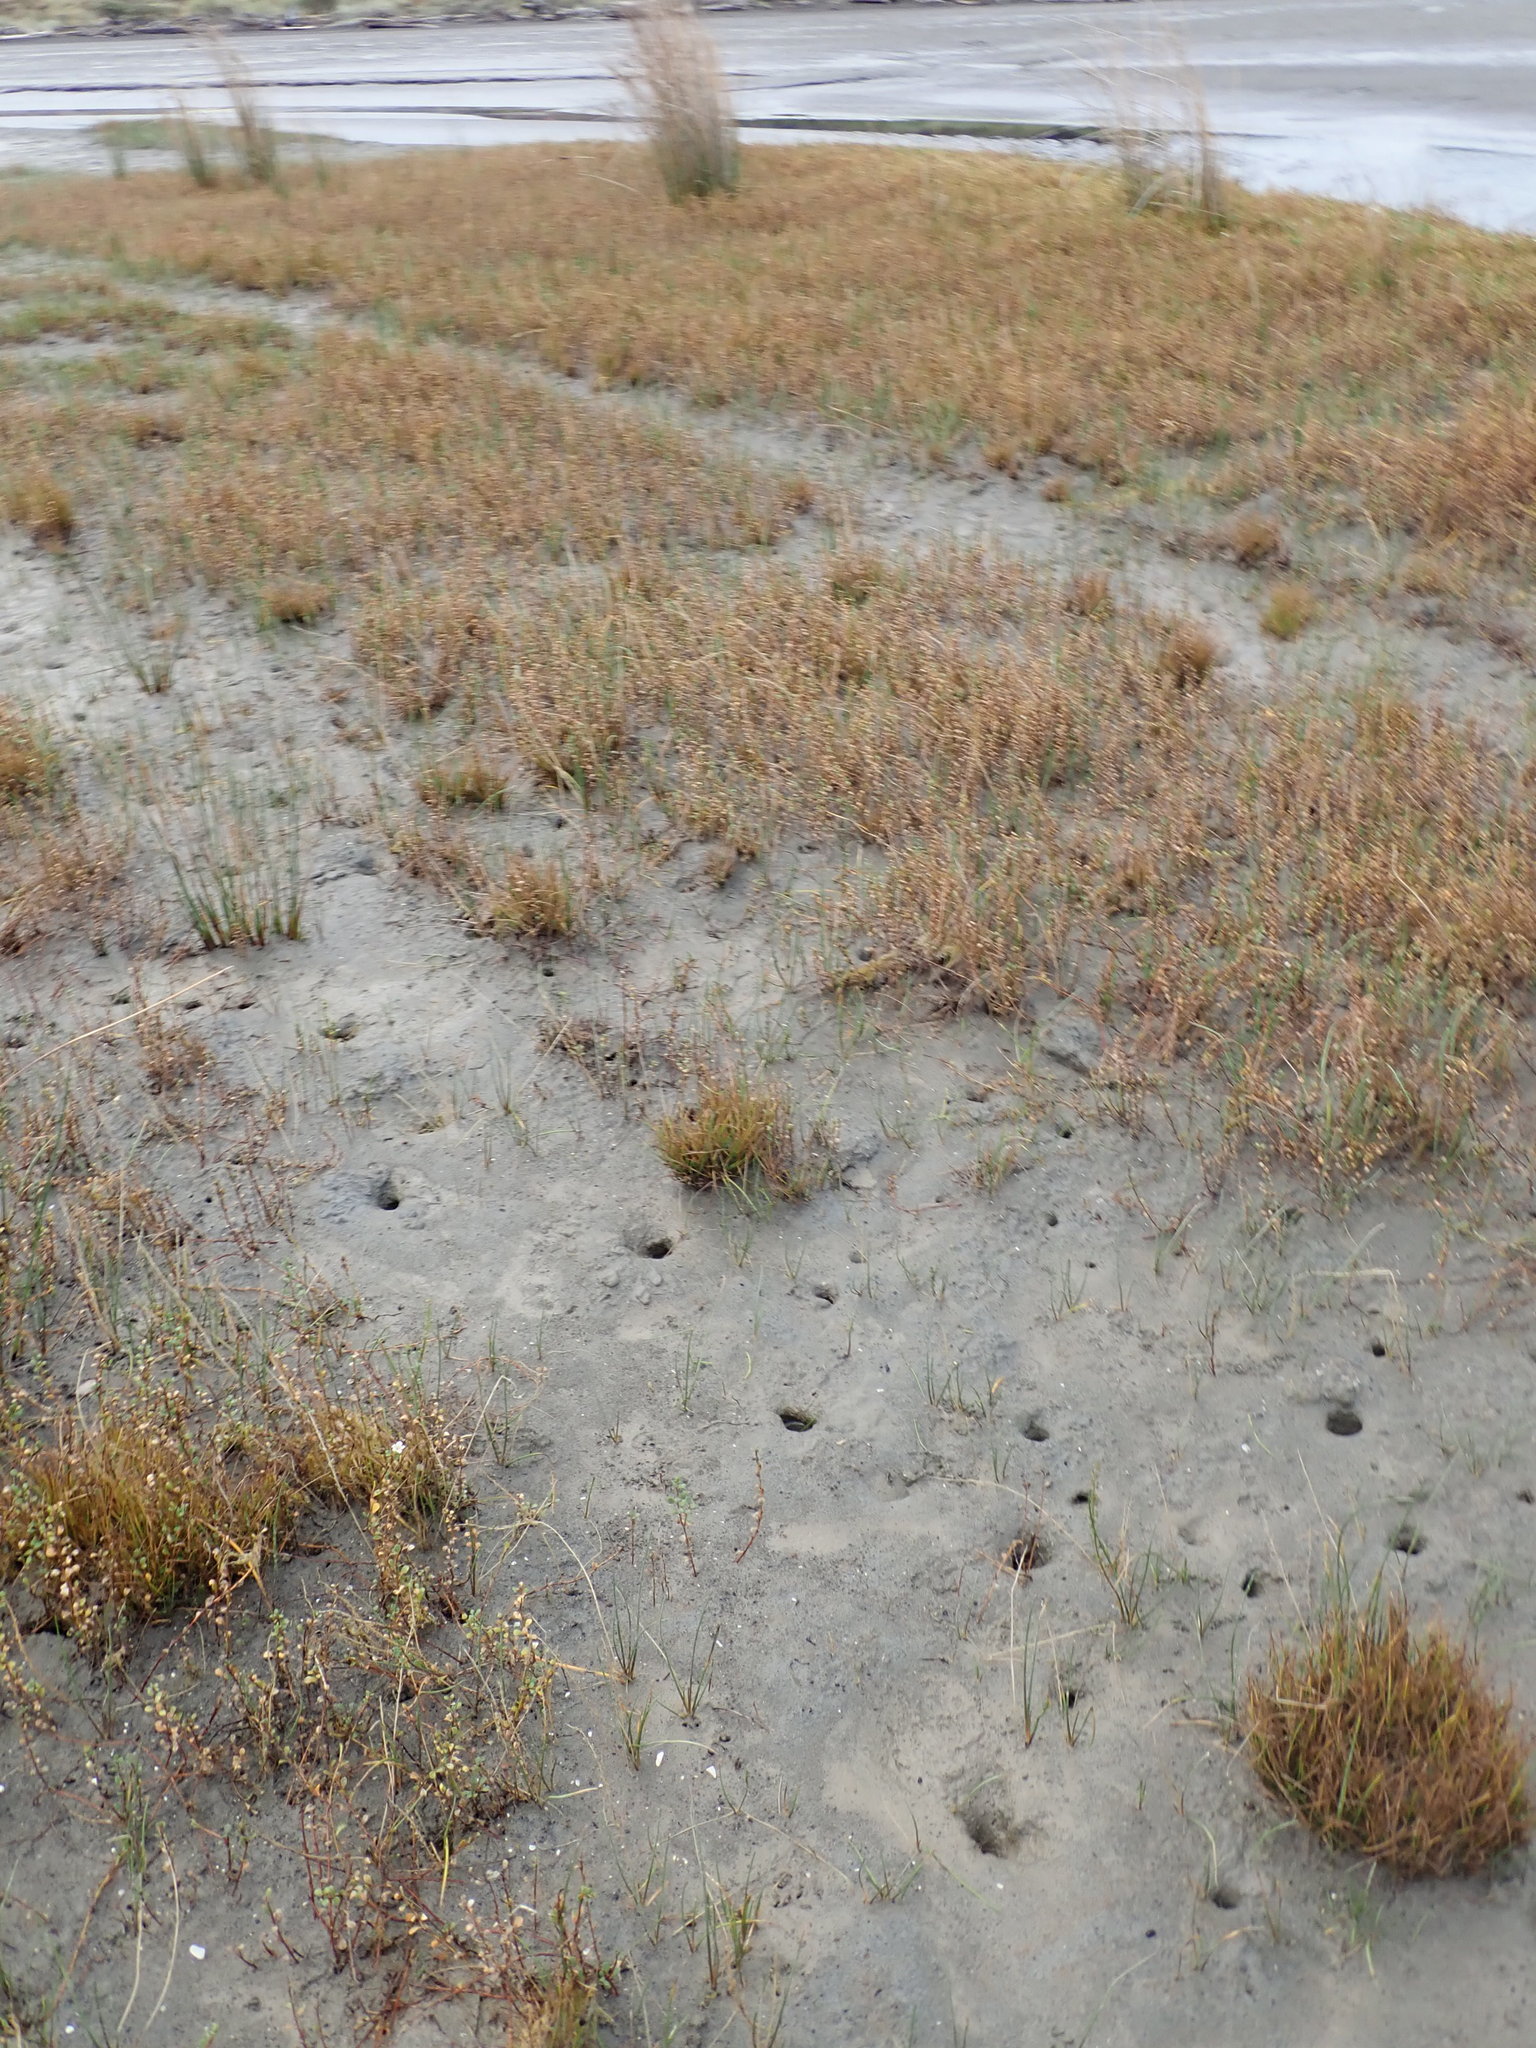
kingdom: Plantae
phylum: Tracheophyta
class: Magnoliopsida
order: Ericales
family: Primulaceae
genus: Samolus
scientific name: Samolus repens
